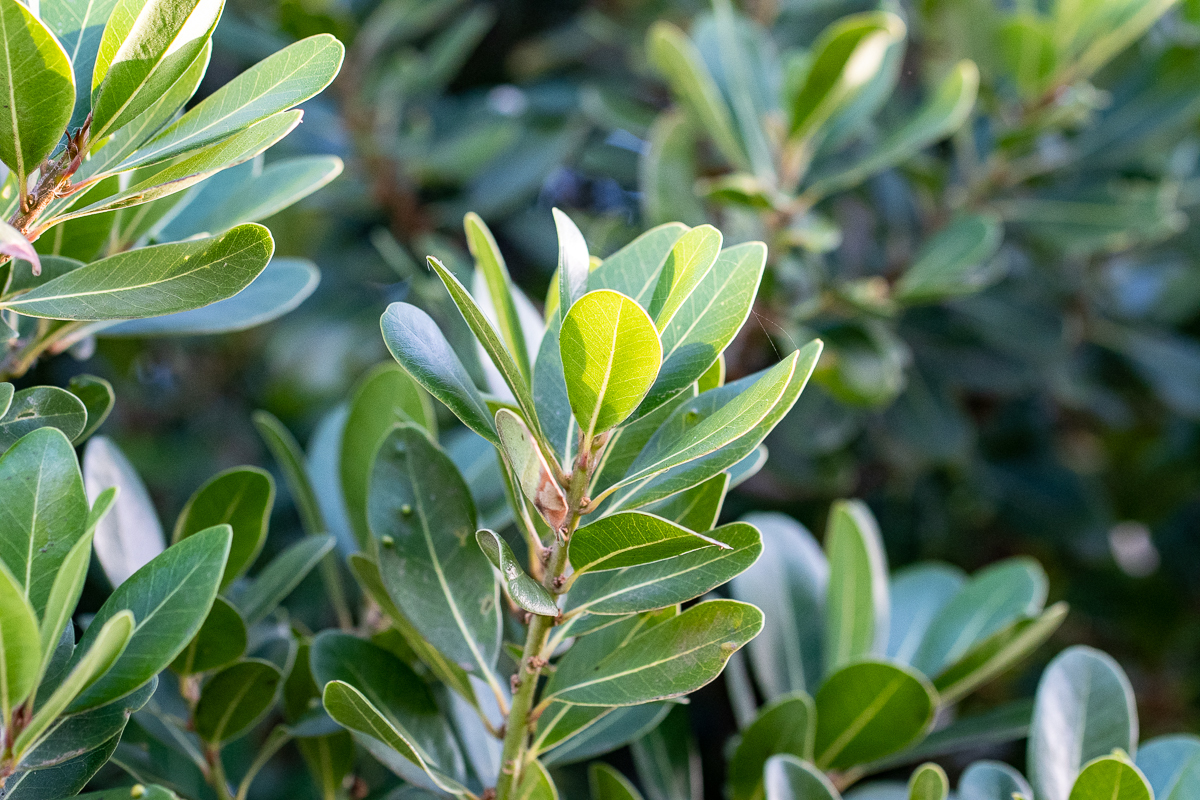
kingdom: Plantae
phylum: Tracheophyta
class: Magnoliopsida
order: Ericales
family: Sapotaceae
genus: Sideroxylon
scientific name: Sideroxylon inerme
